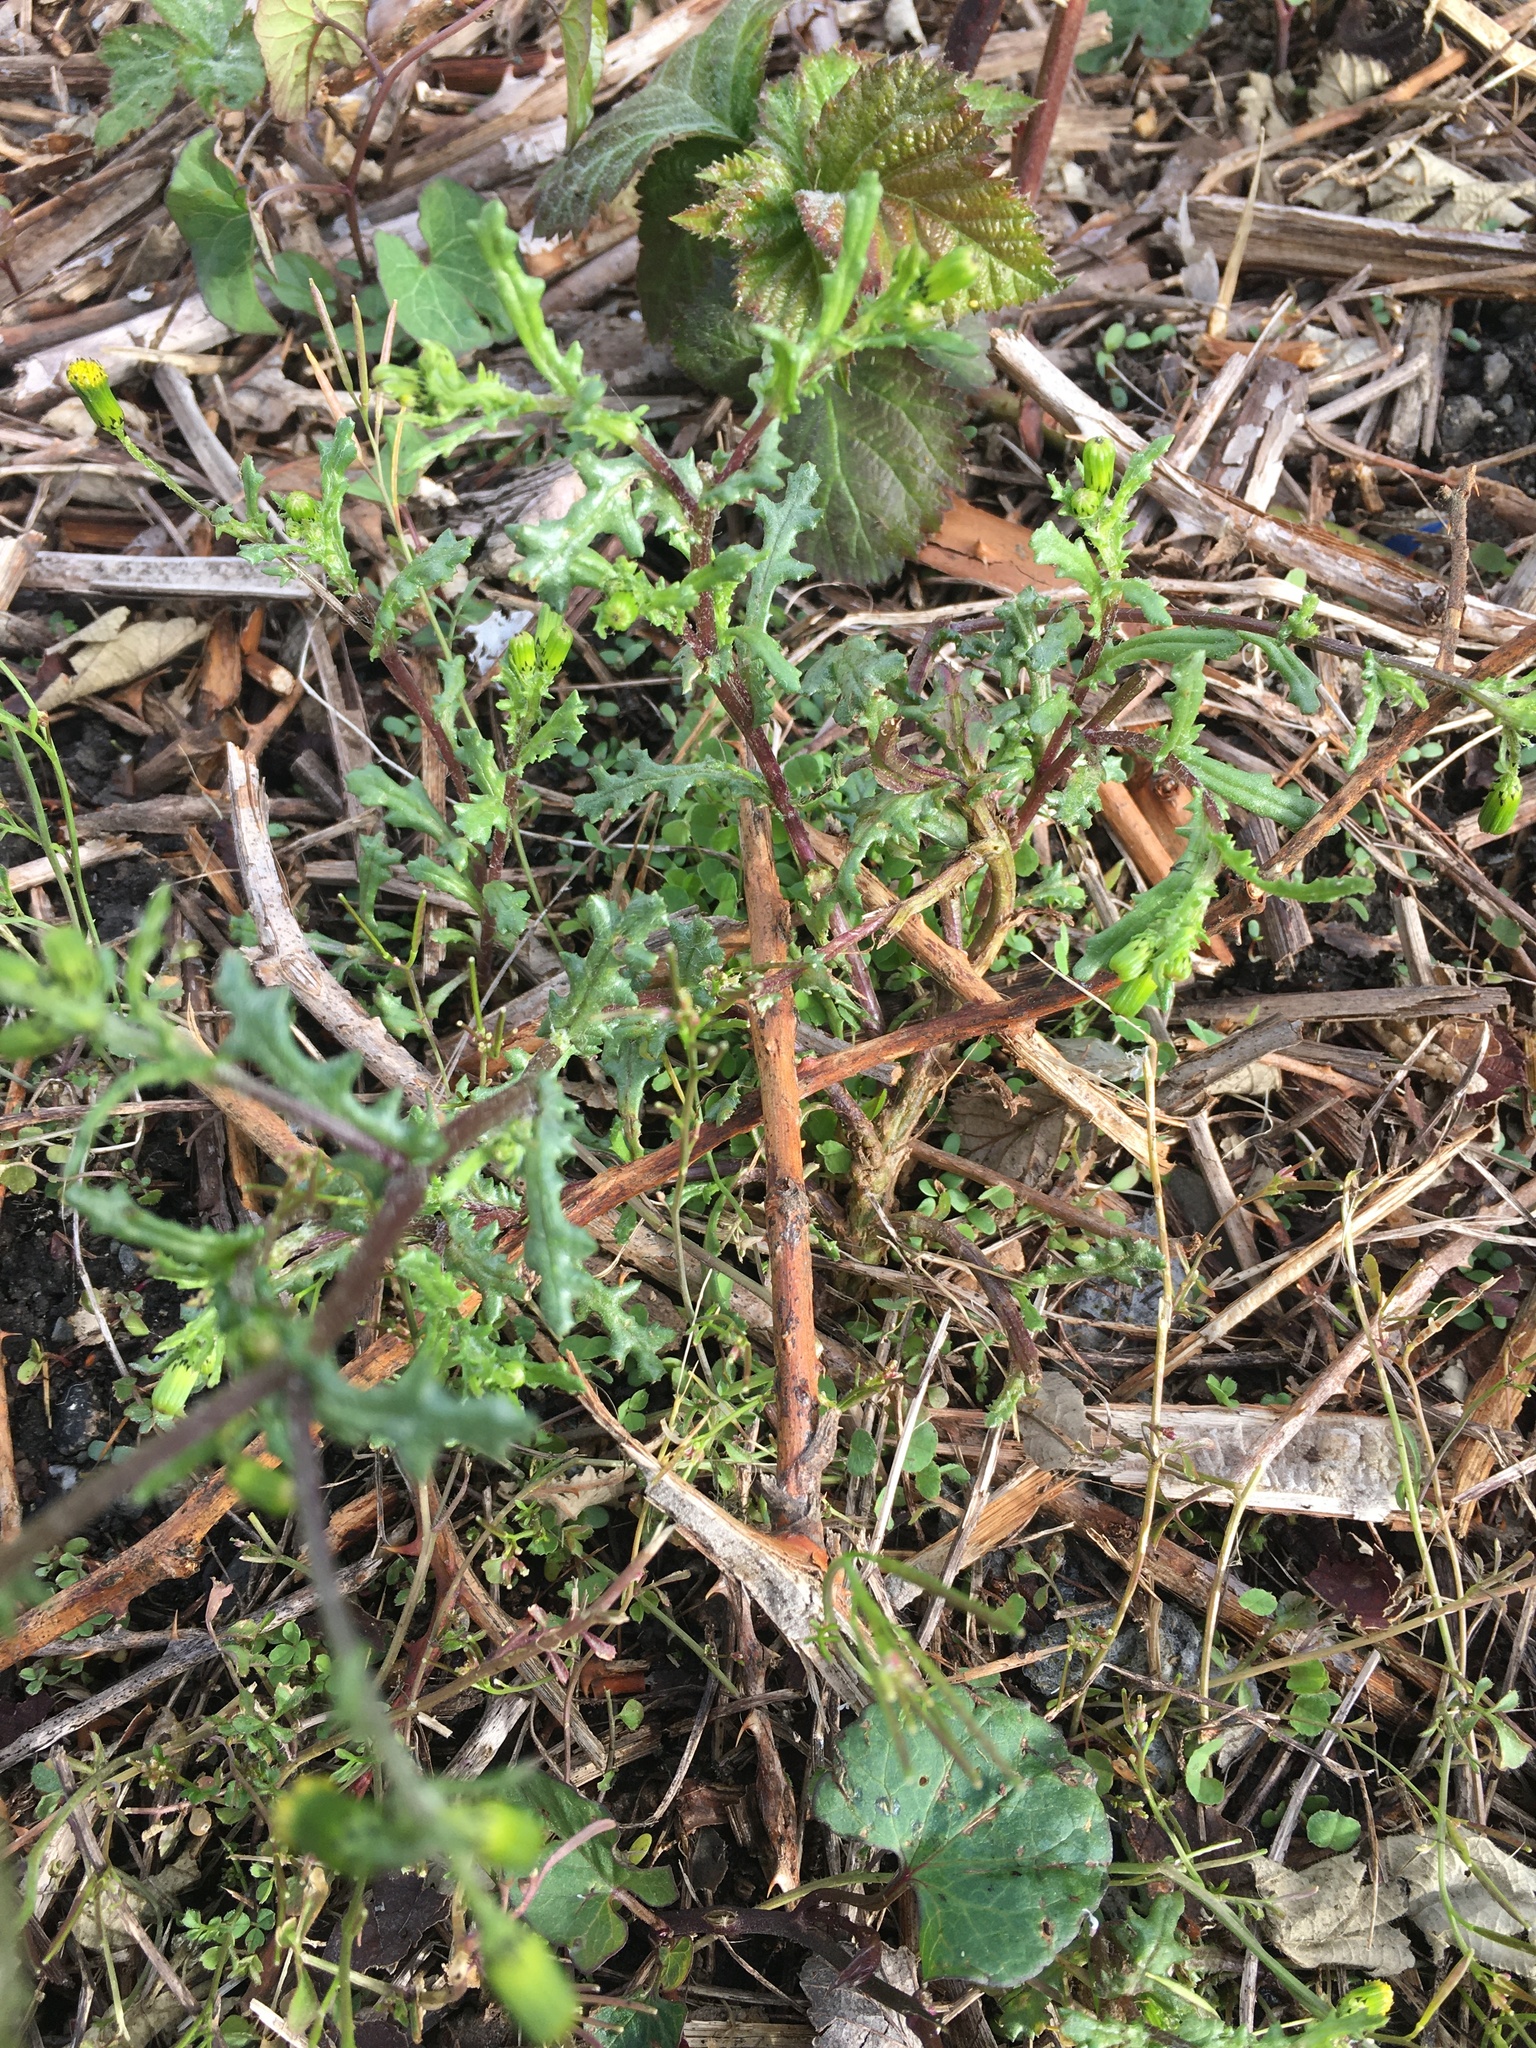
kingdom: Plantae
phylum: Tracheophyta
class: Magnoliopsida
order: Asterales
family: Asteraceae
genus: Senecio
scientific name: Senecio vulgaris
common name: Old-man-in-the-spring
